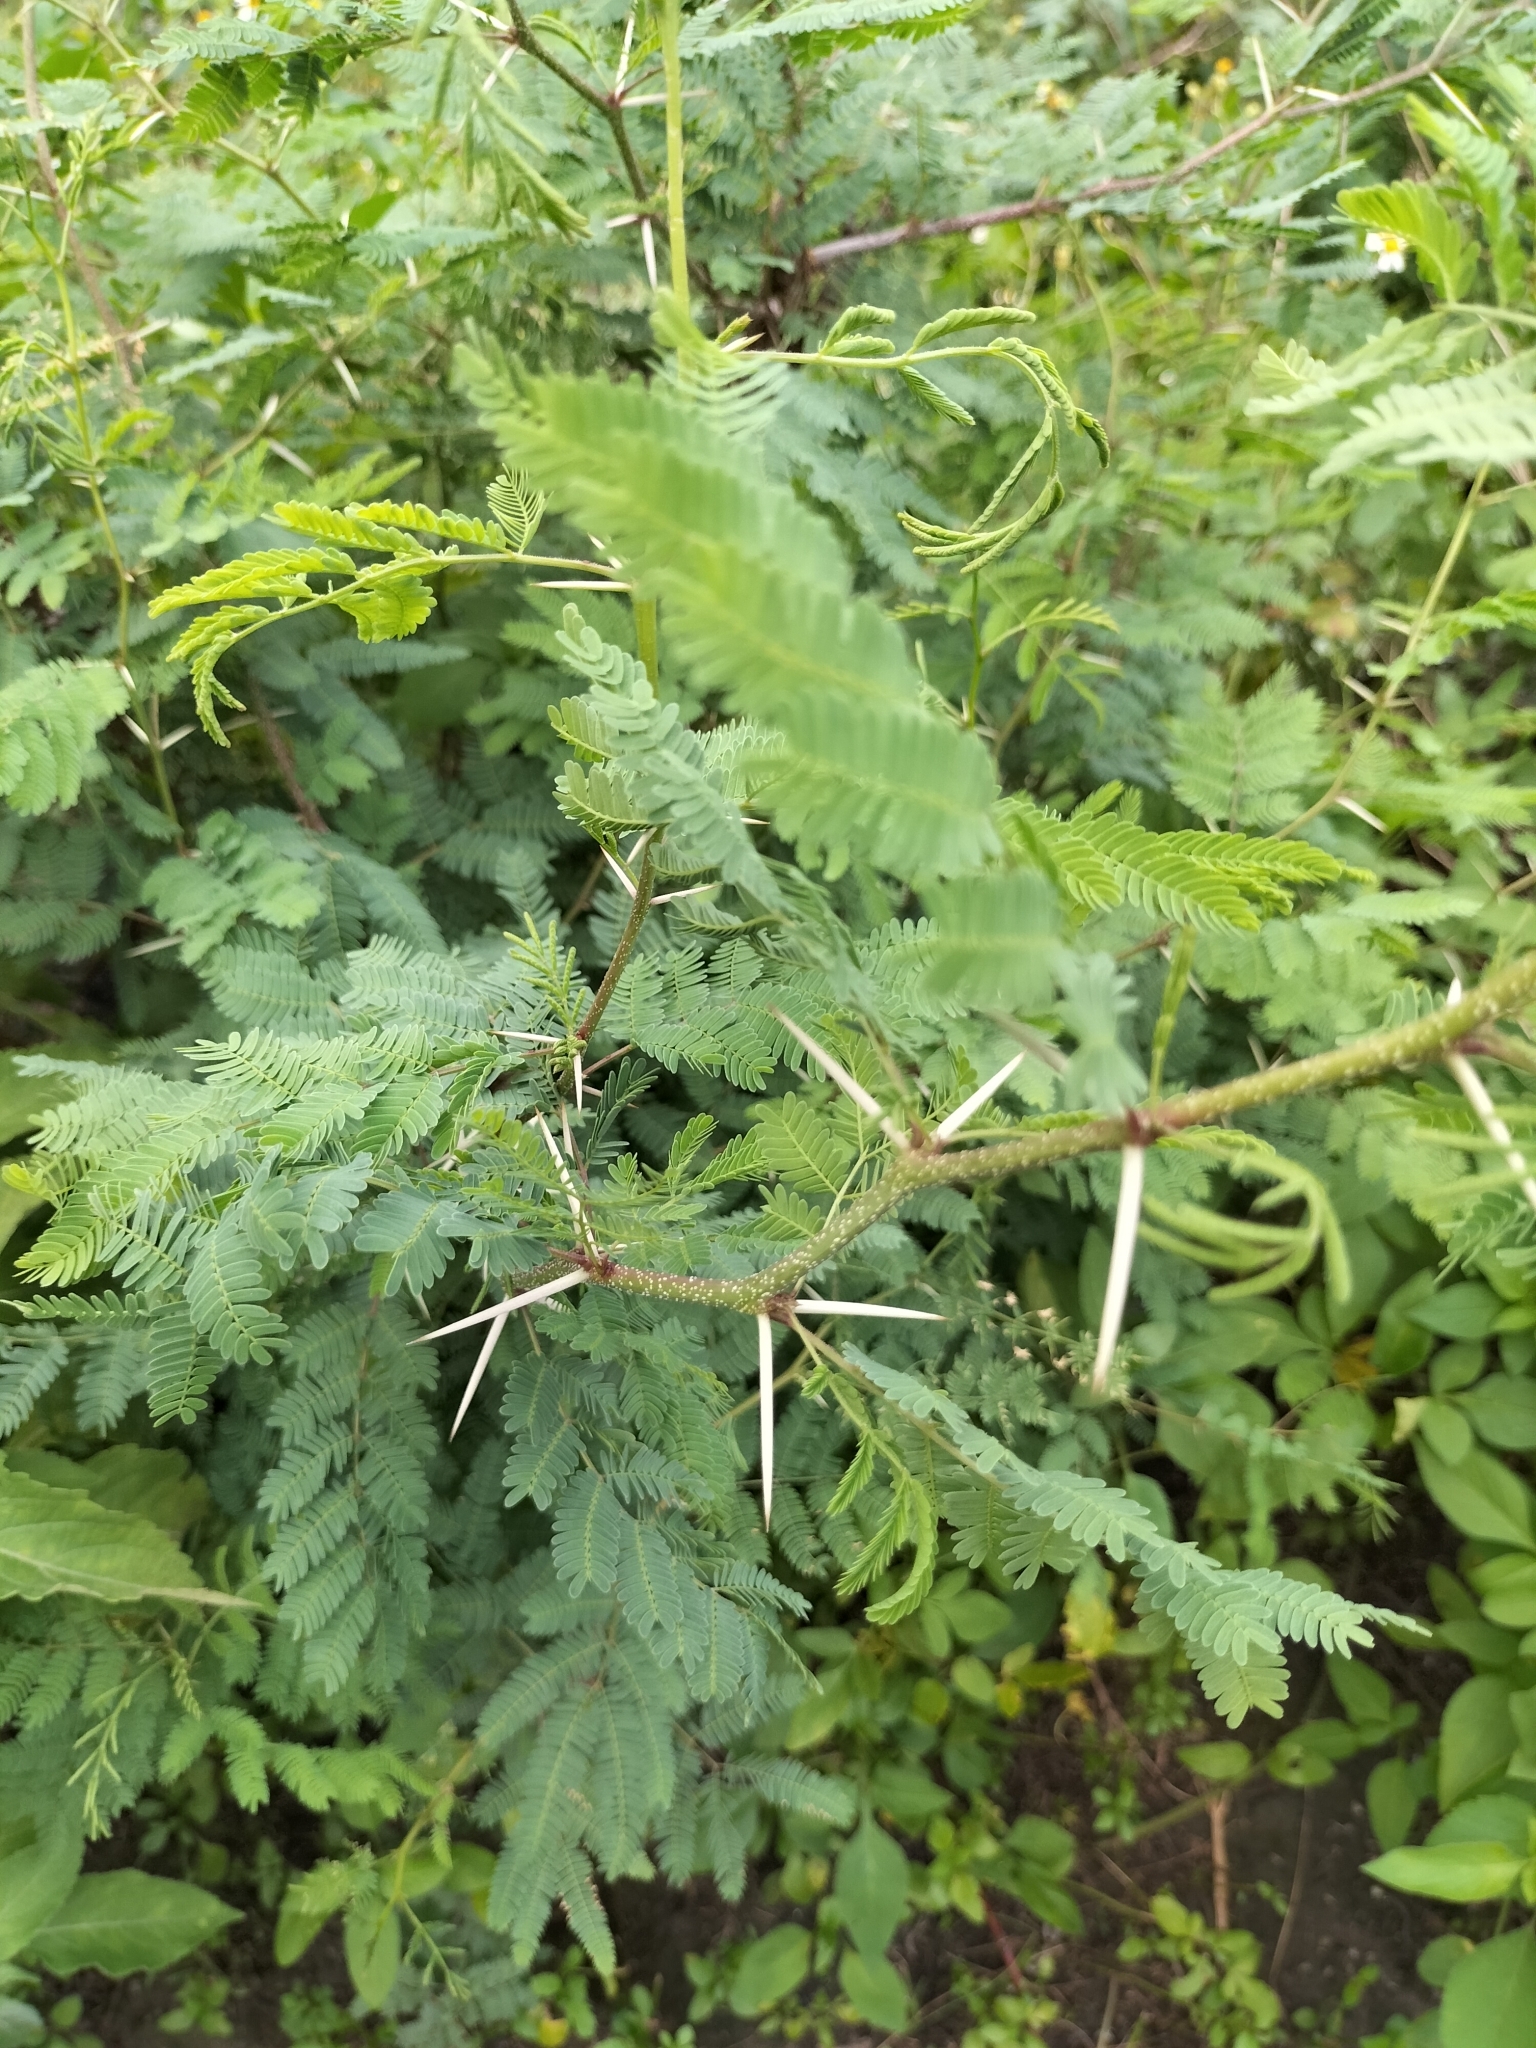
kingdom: Plantae
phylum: Tracheophyta
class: Magnoliopsida
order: Fabales
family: Fabaceae
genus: Vachellia
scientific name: Vachellia farnesiana
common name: Sweet acacia
